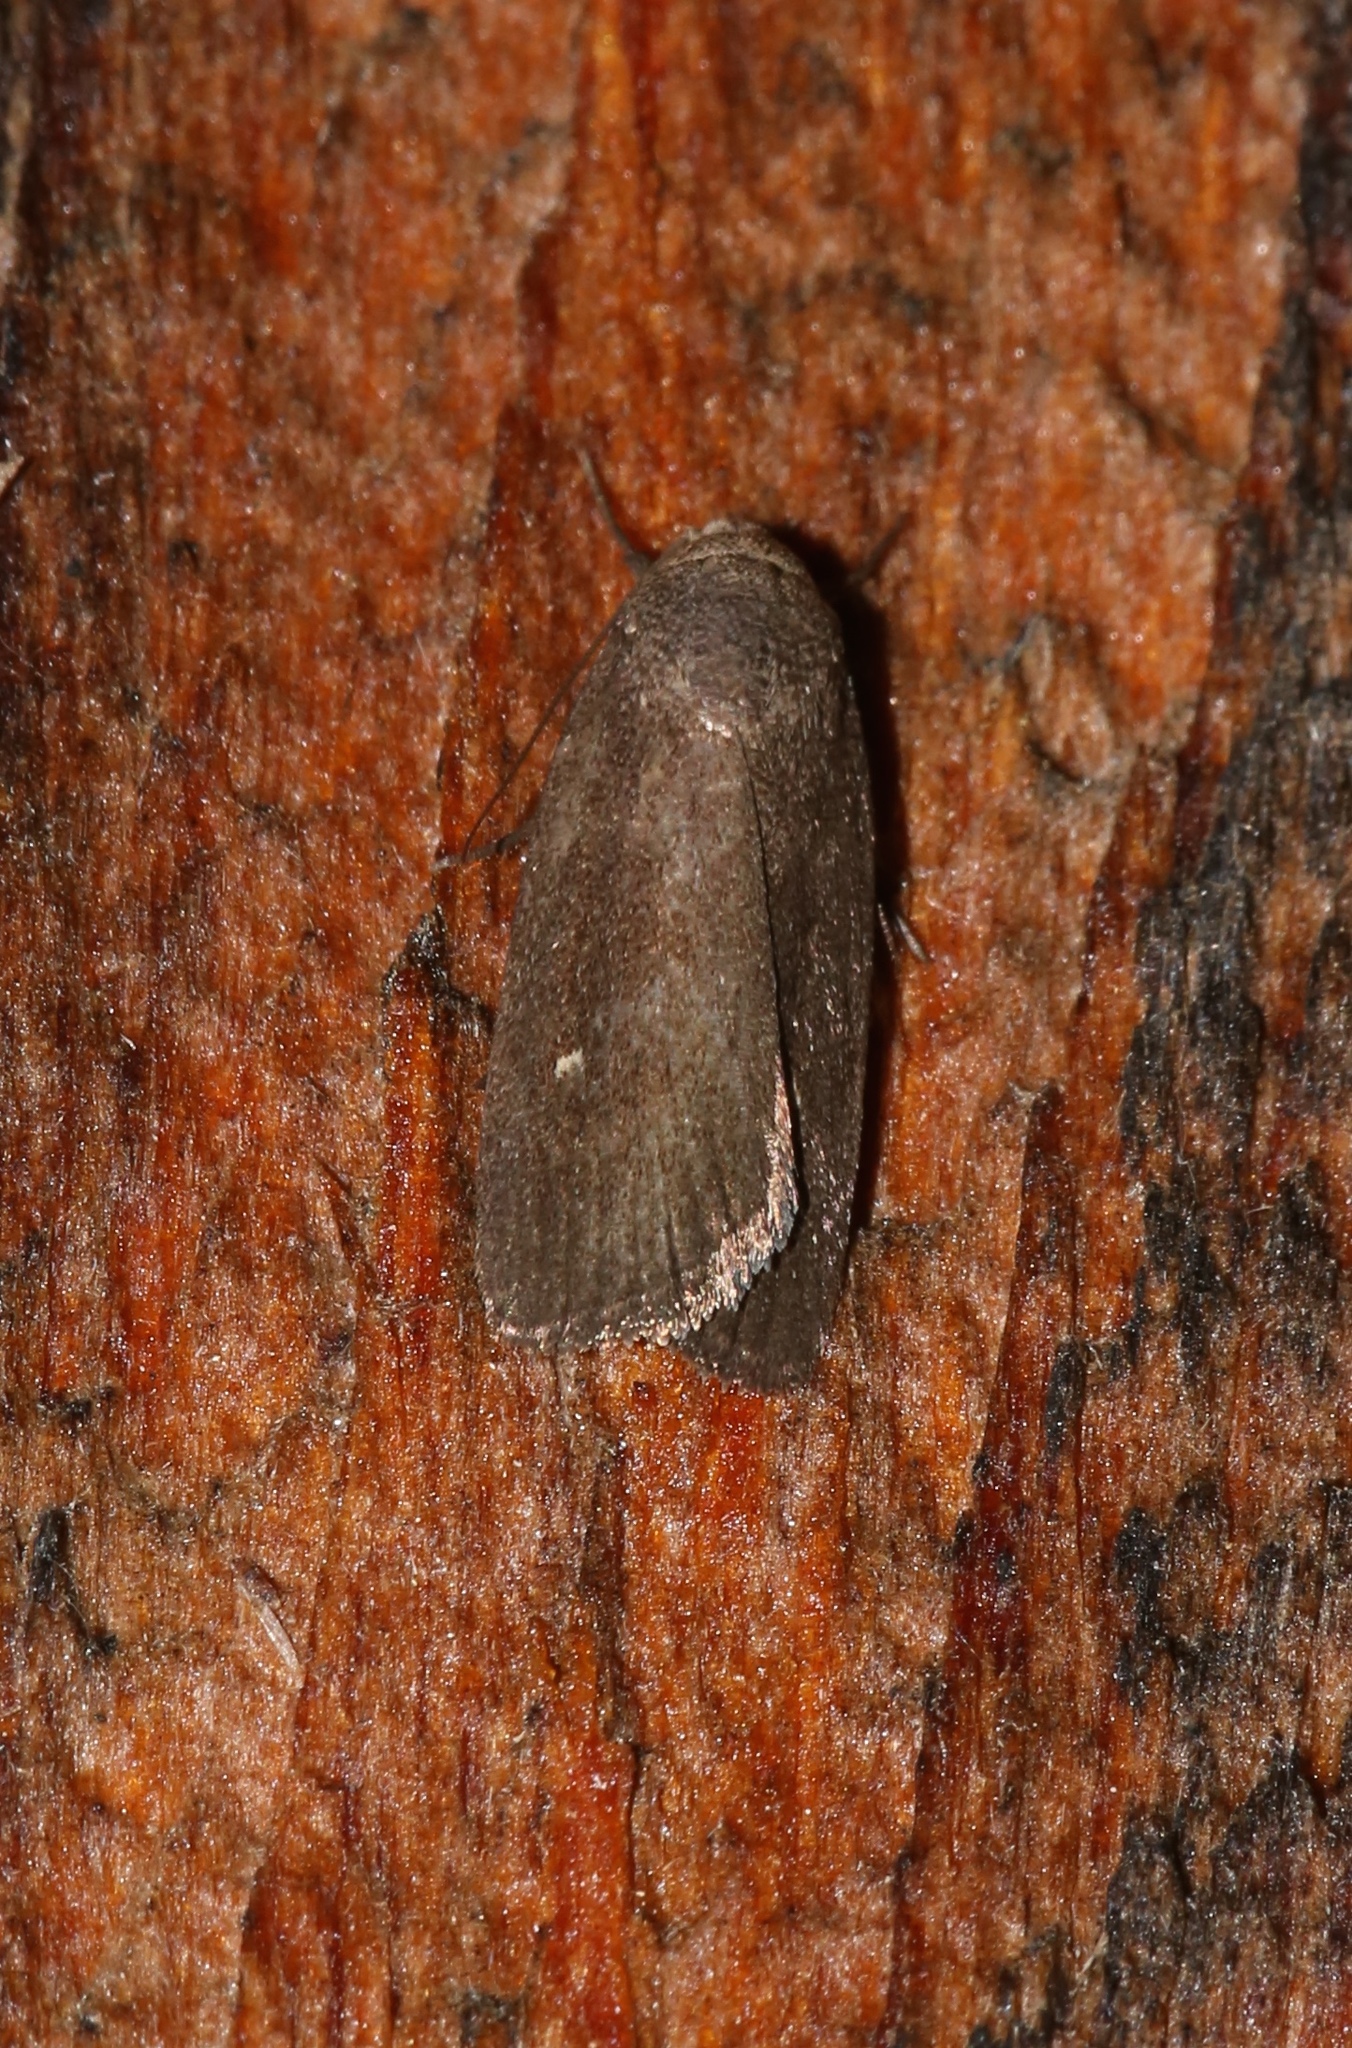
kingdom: Animalia
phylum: Arthropoda
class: Insecta
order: Lepidoptera
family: Noctuidae
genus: Proxenus
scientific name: Proxenus miranda
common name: Miranda moth
